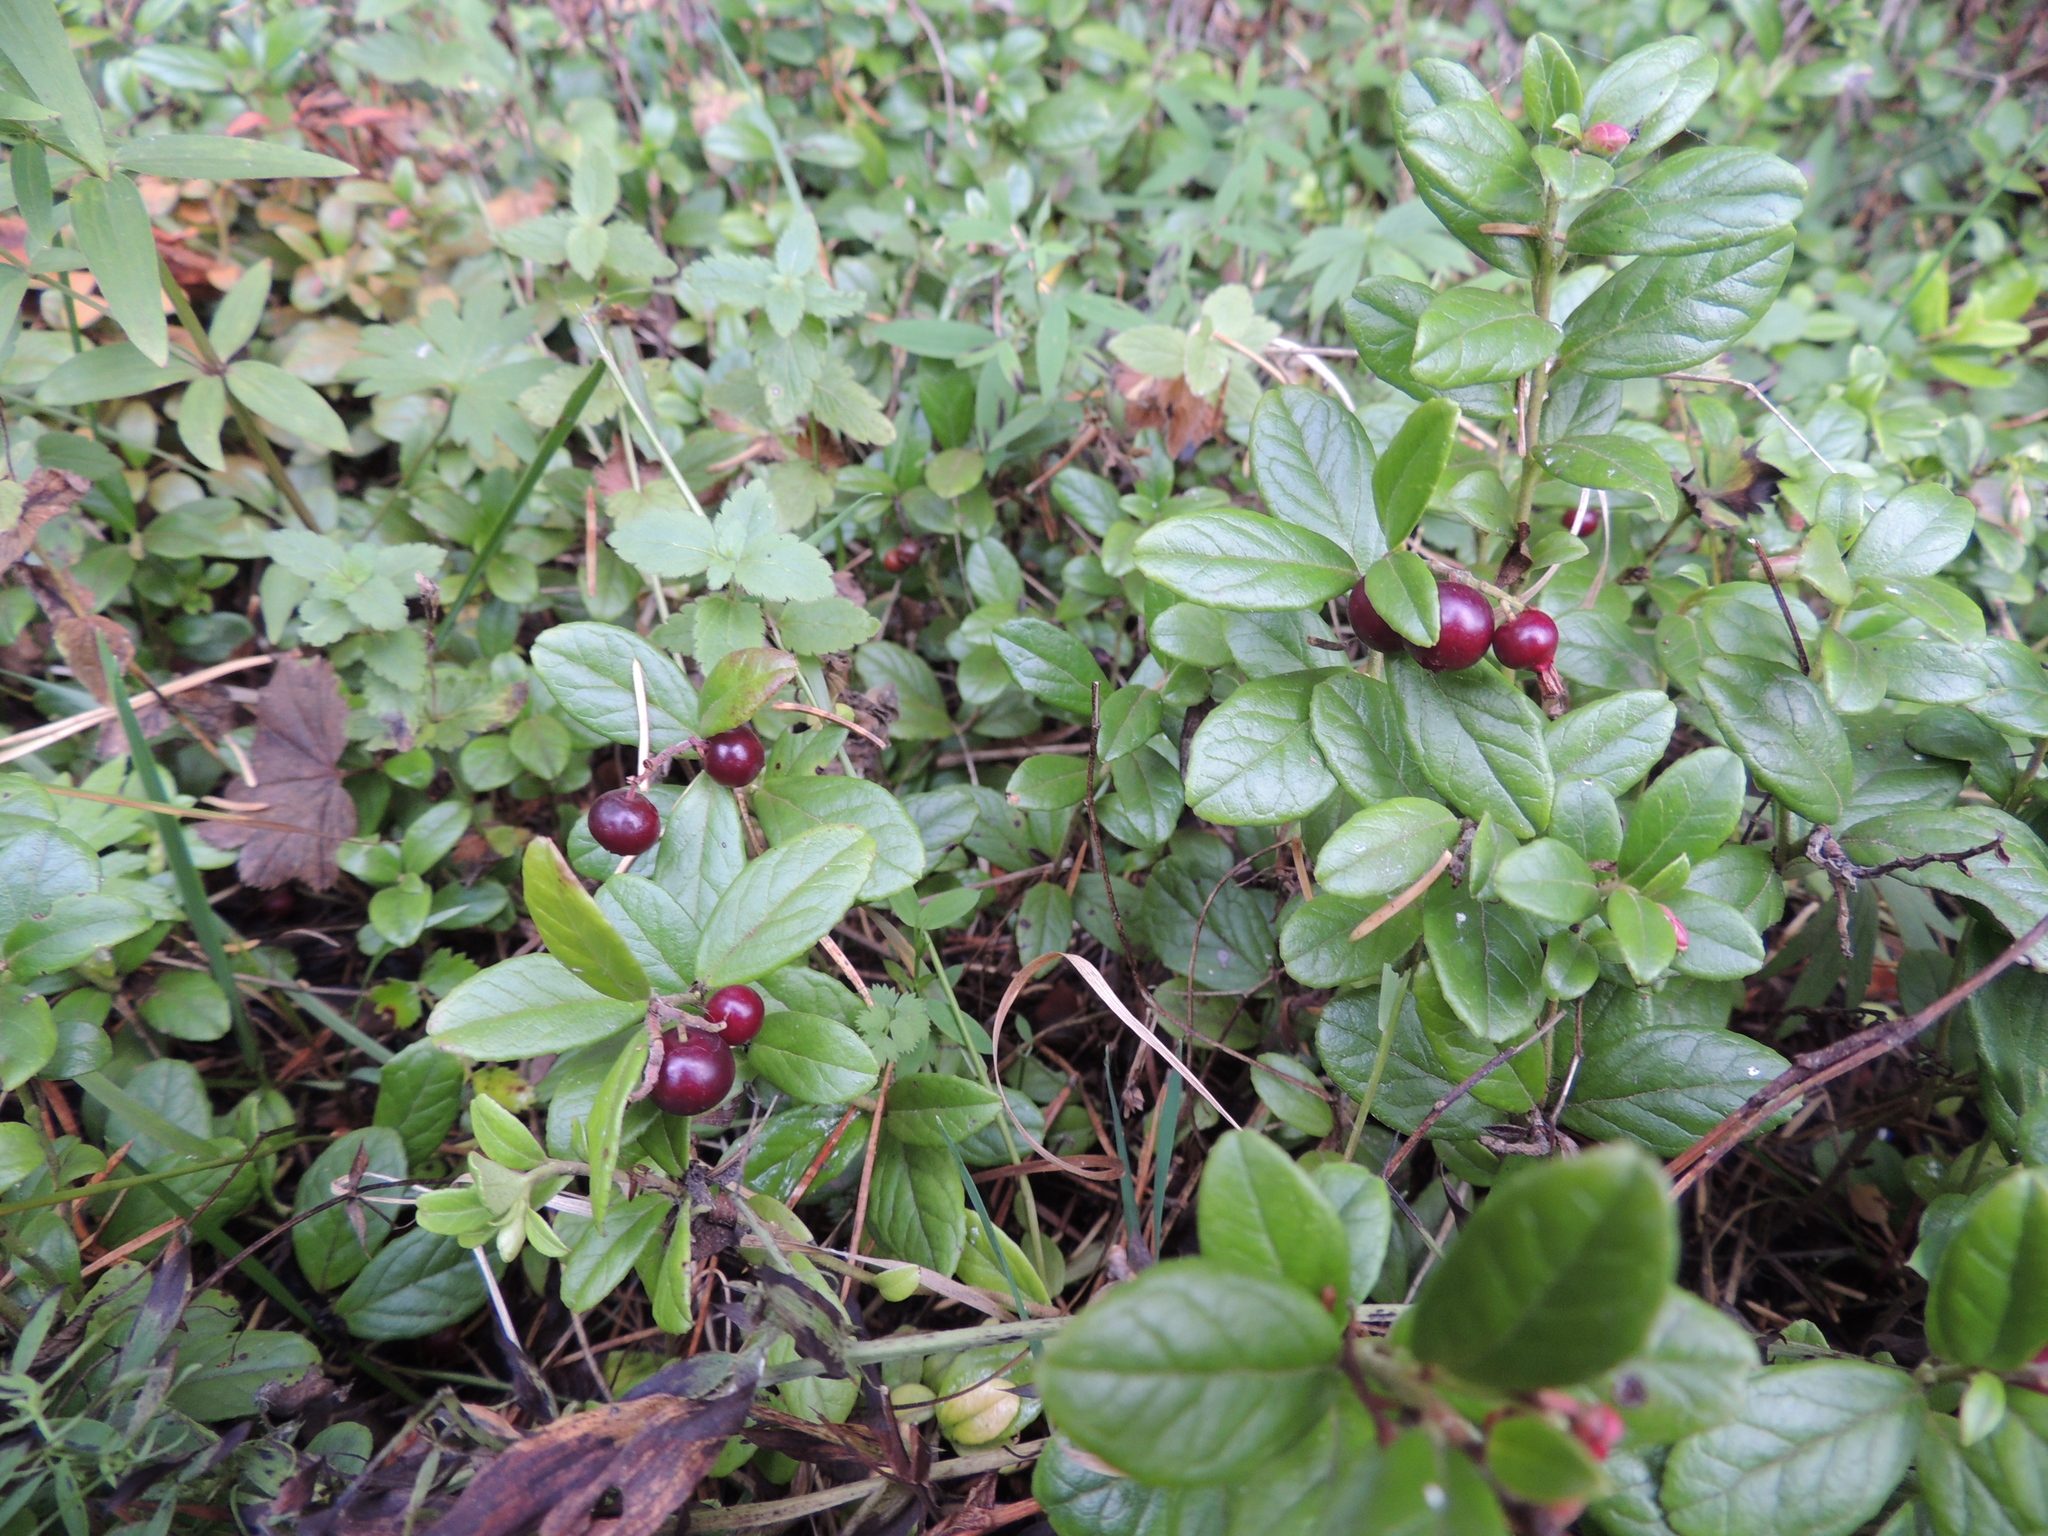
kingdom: Plantae
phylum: Tracheophyta
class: Magnoliopsida
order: Ericales
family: Ericaceae
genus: Vaccinium
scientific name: Vaccinium vitis-idaea
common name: Cowberry
